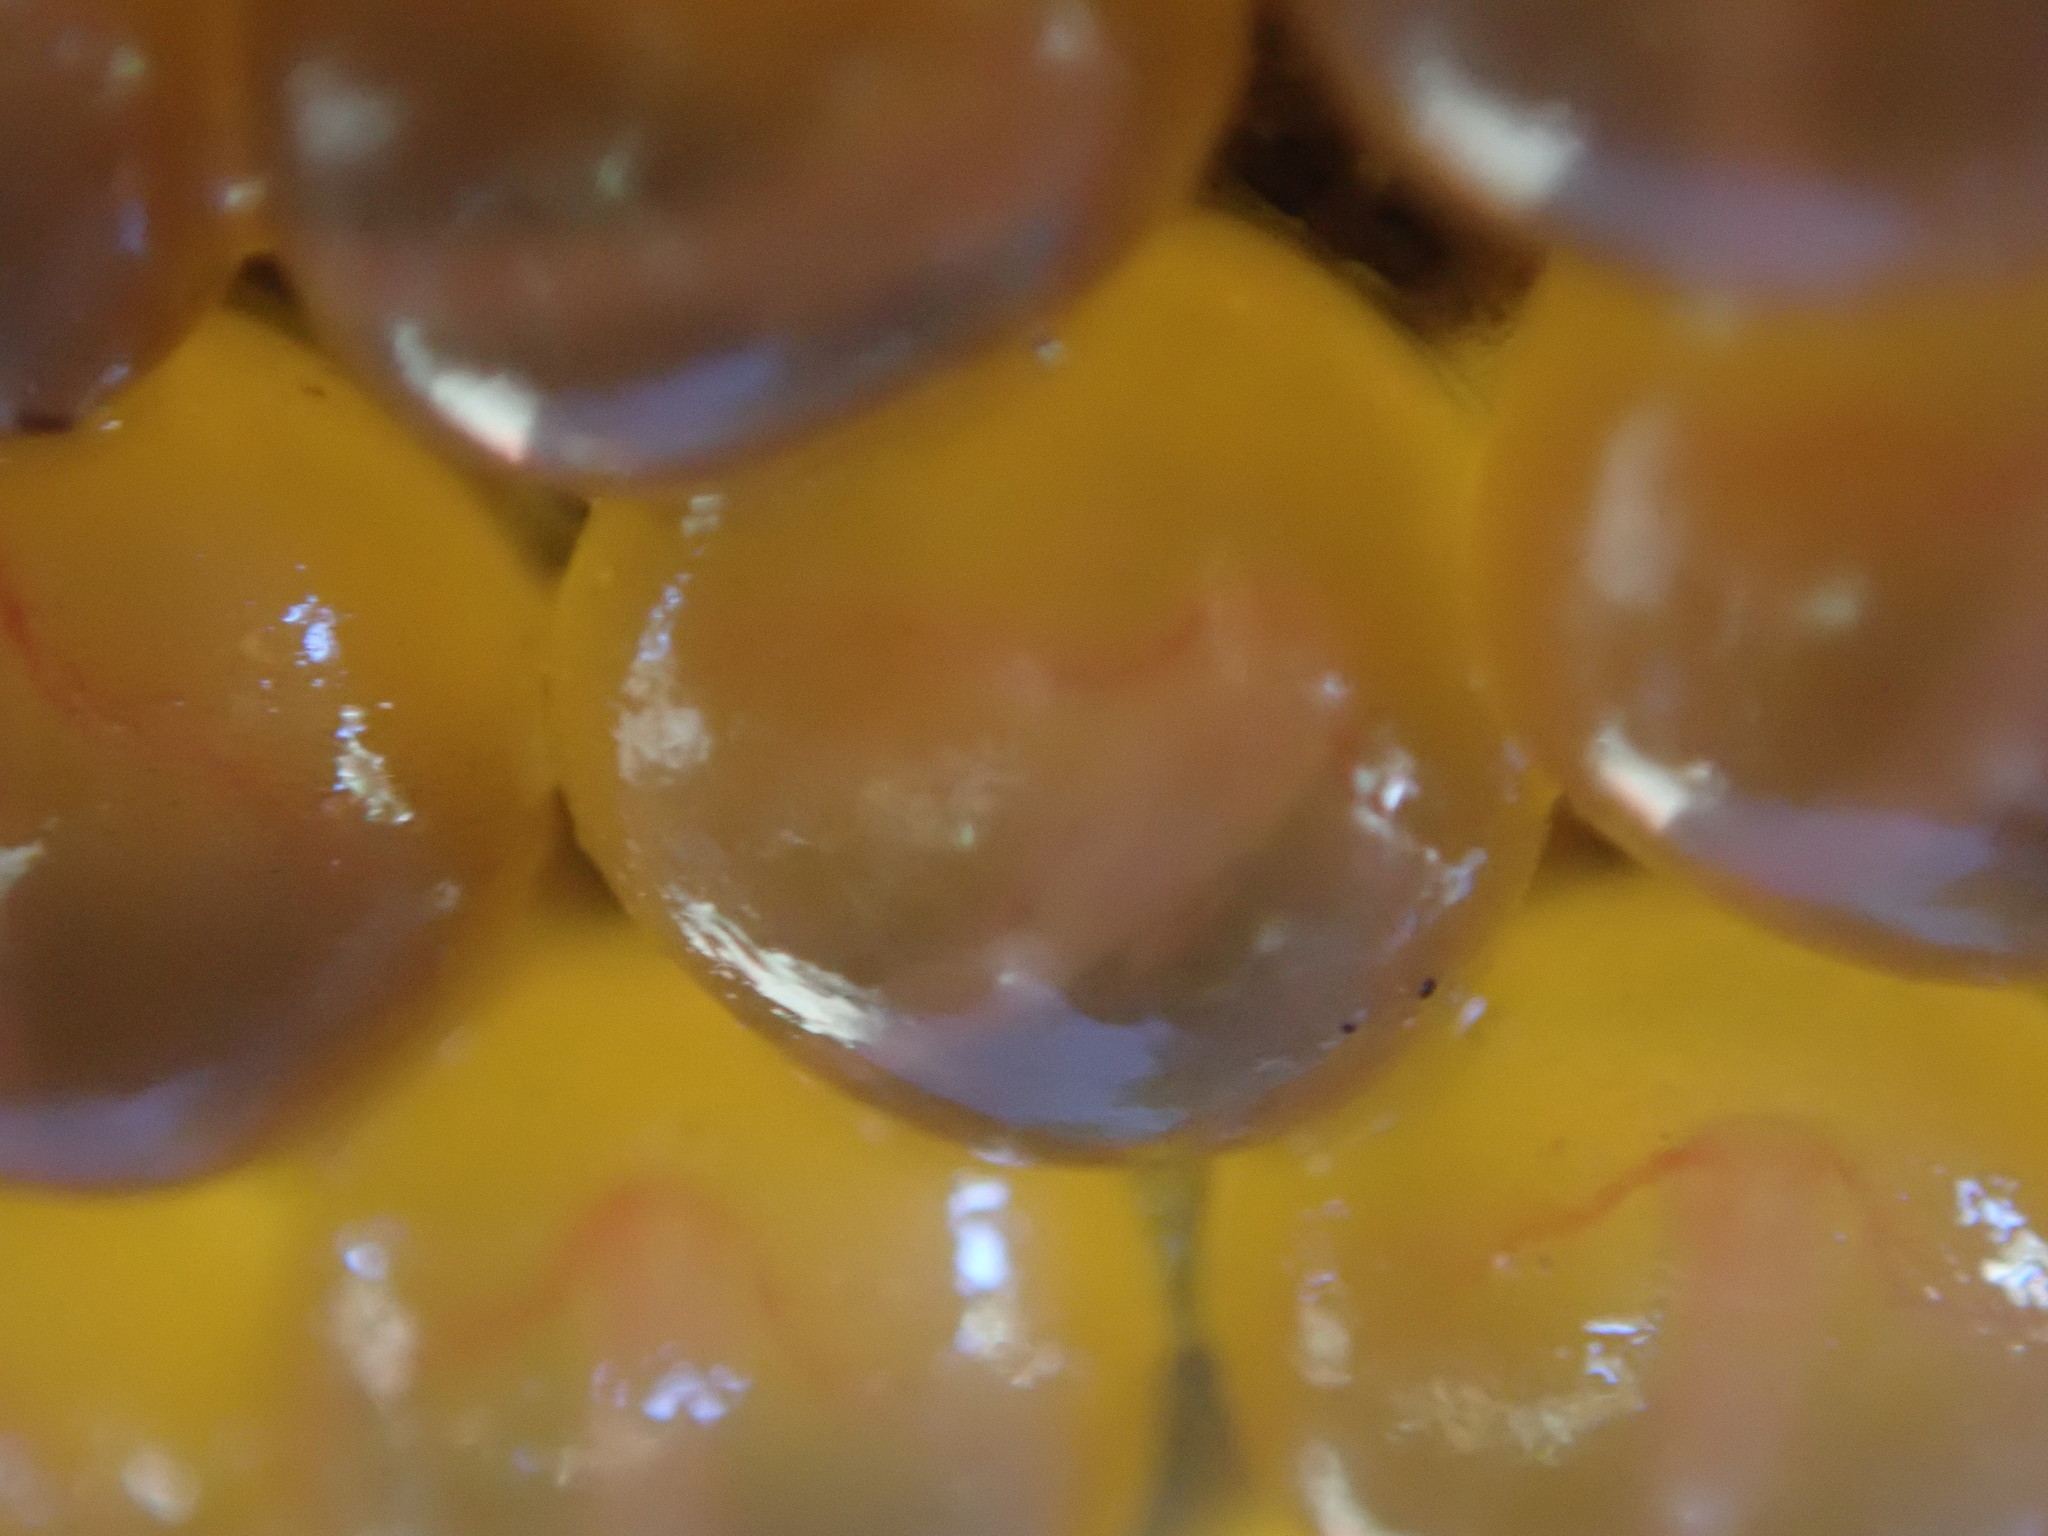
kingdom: Animalia
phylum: Chordata
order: Batrachoidiformes
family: Batrachoididae
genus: Porichthys
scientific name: Porichthys notatus
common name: Plainfin midshipman
